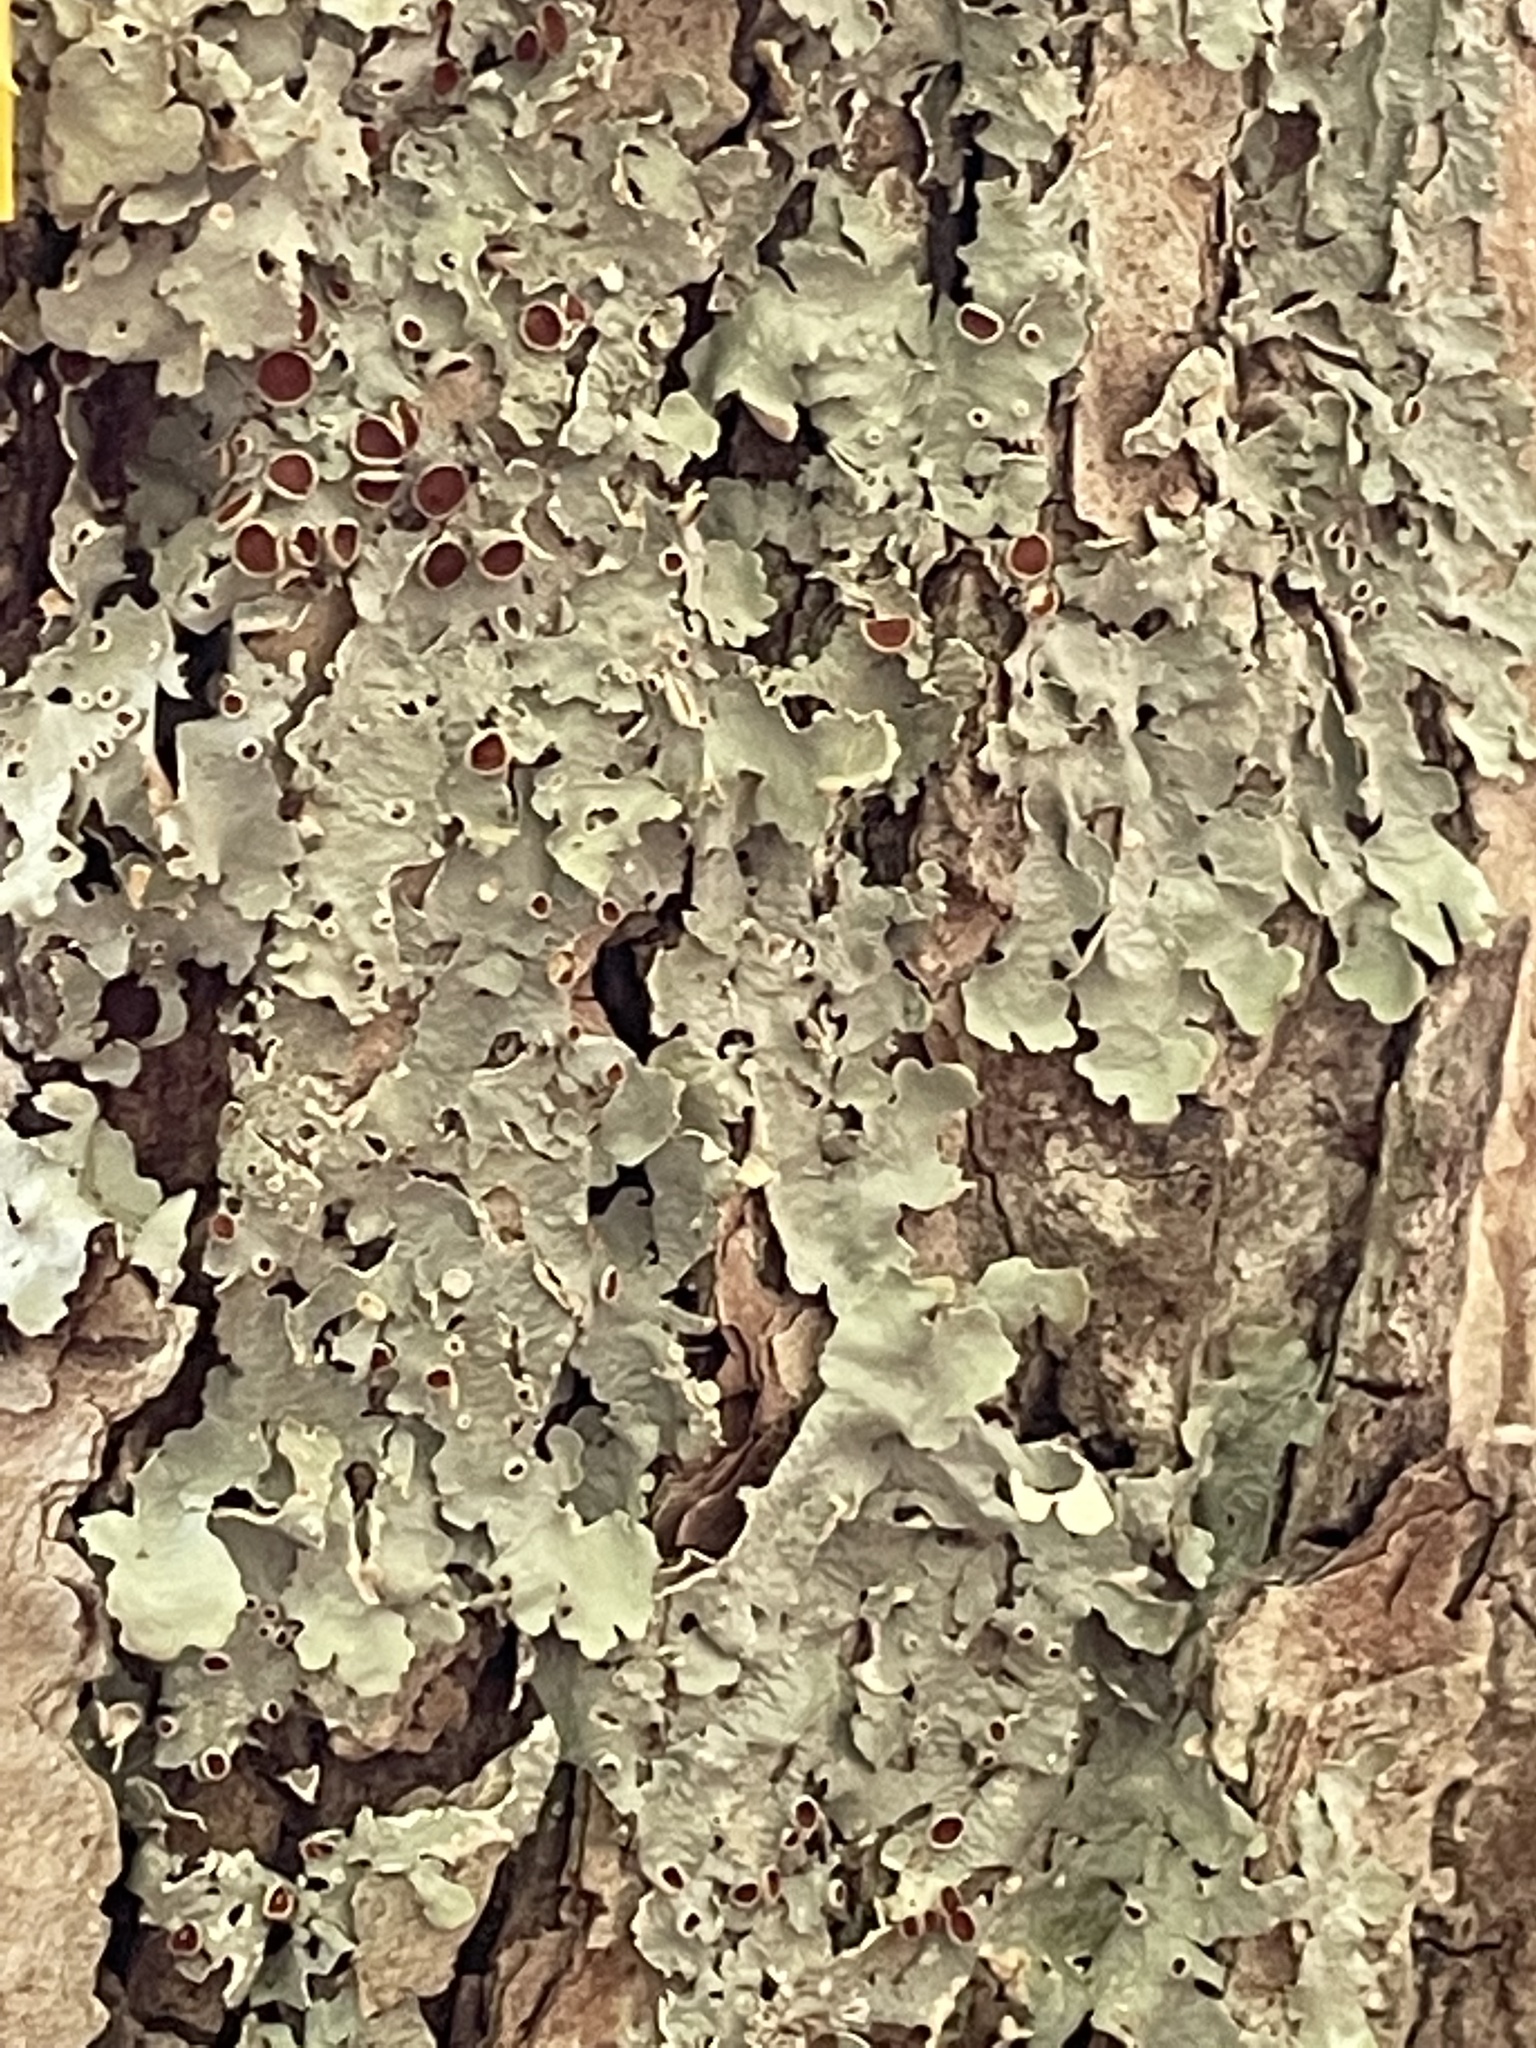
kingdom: Fungi
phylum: Ascomycota
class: Lecanoromycetes
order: Peltigerales
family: Lobariaceae
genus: Ricasolia
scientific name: Ricasolia quercizans
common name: Smooth lungwort
